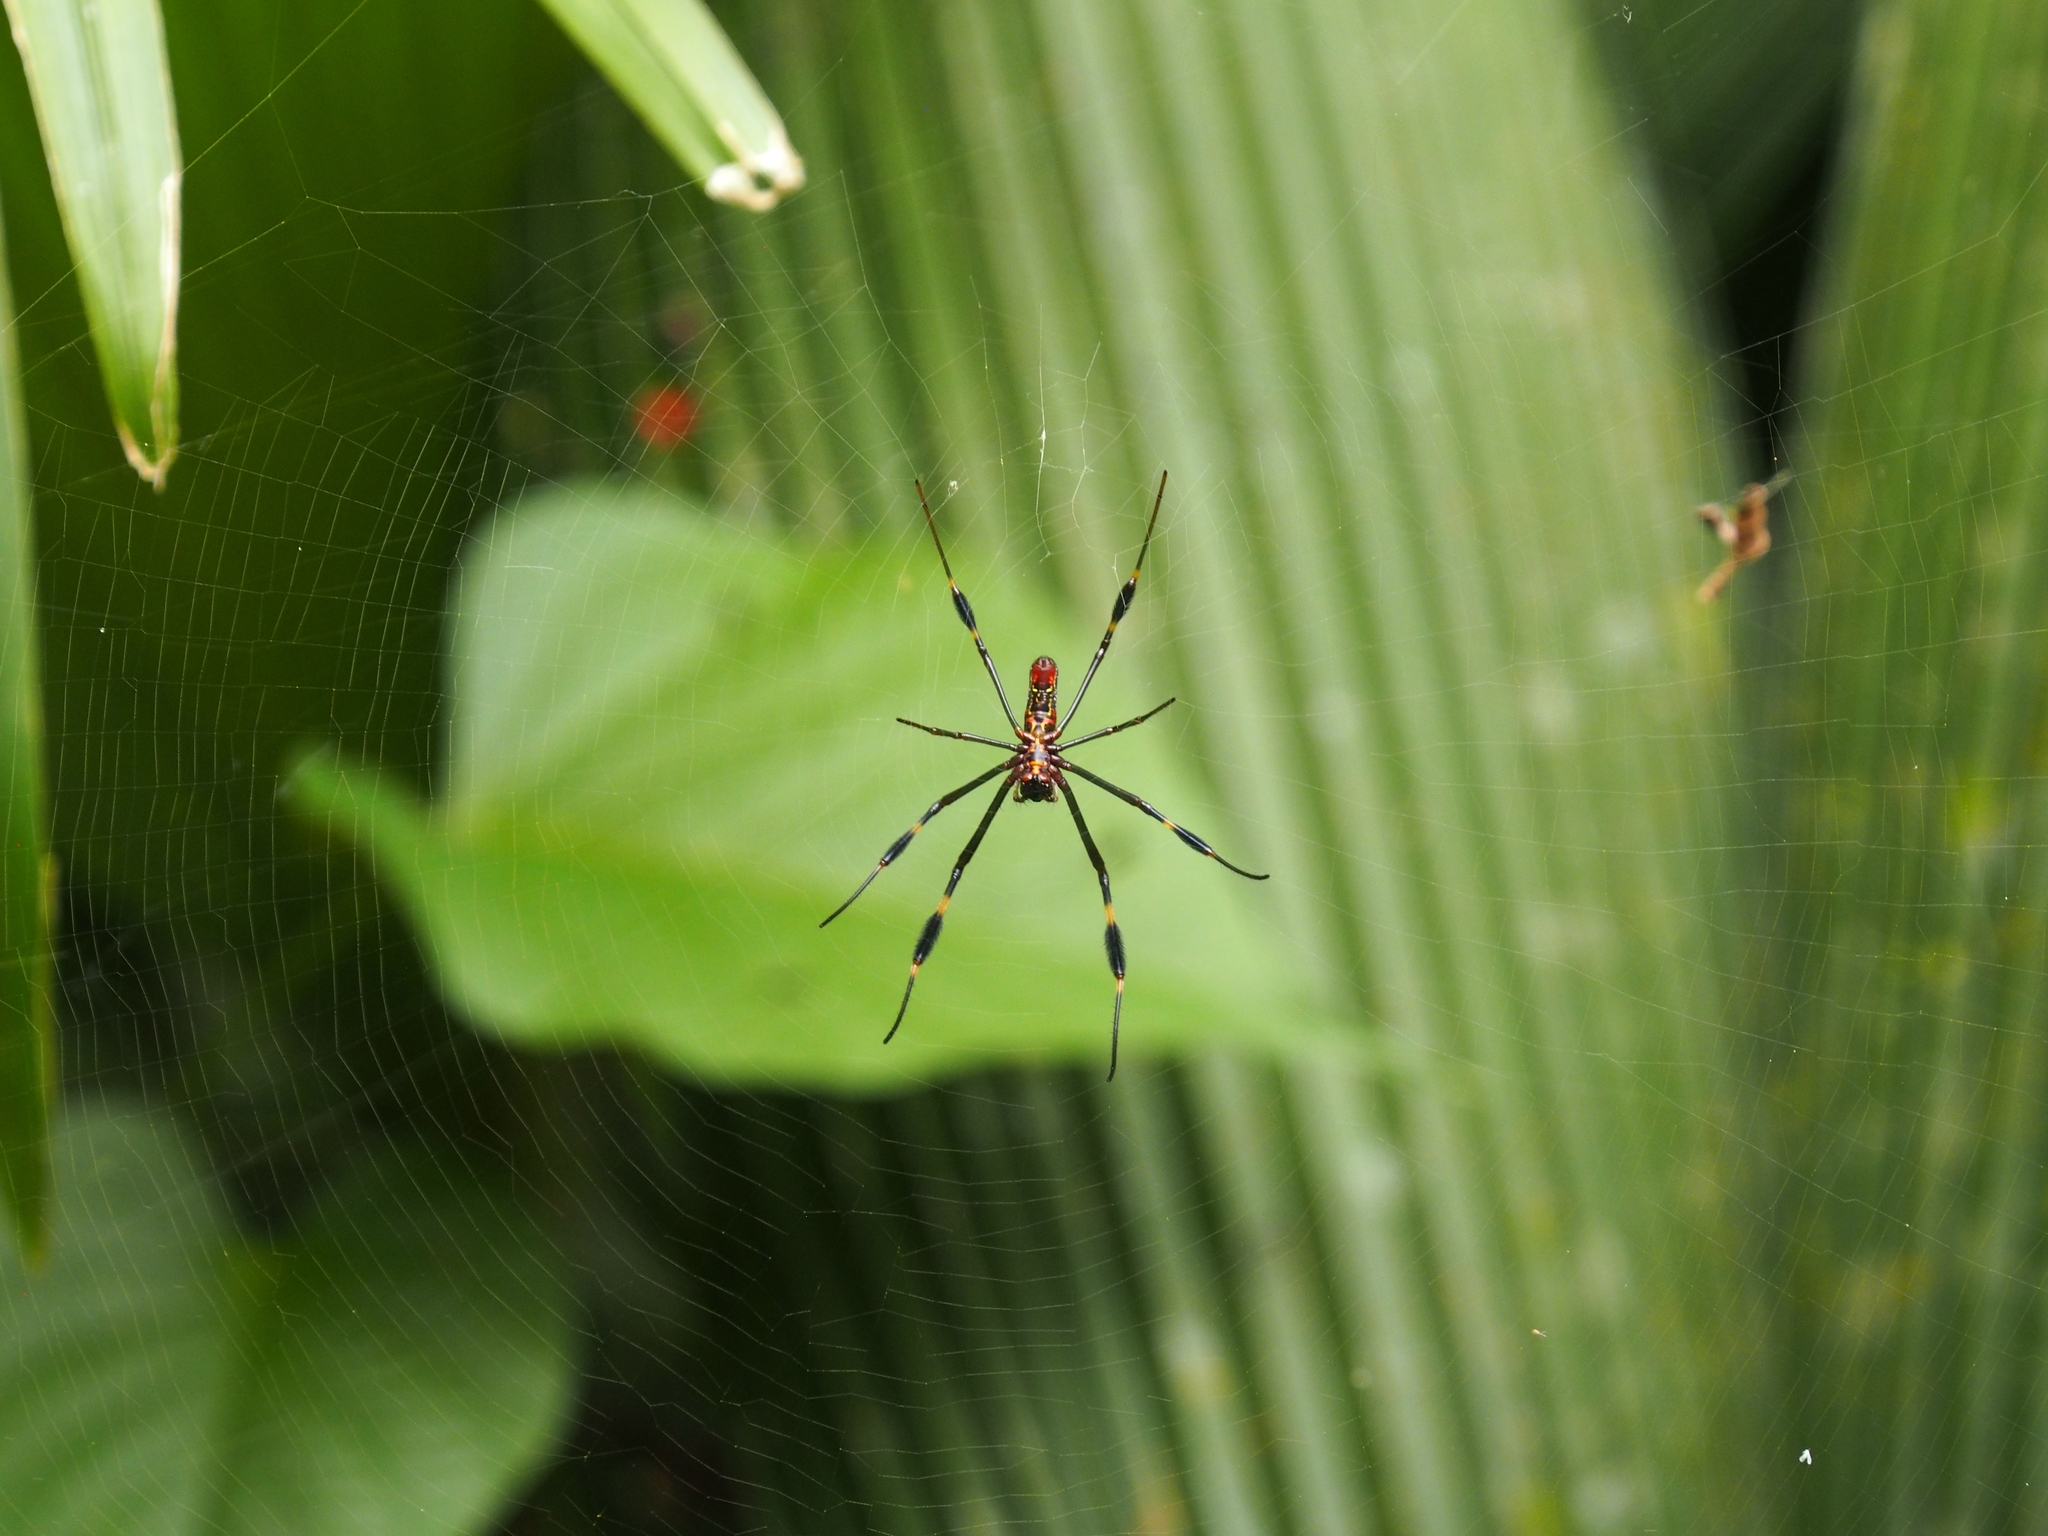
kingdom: Animalia
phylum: Arthropoda
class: Arachnida
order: Araneae
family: Araneidae
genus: Trichonephila
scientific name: Trichonephila clavipes
